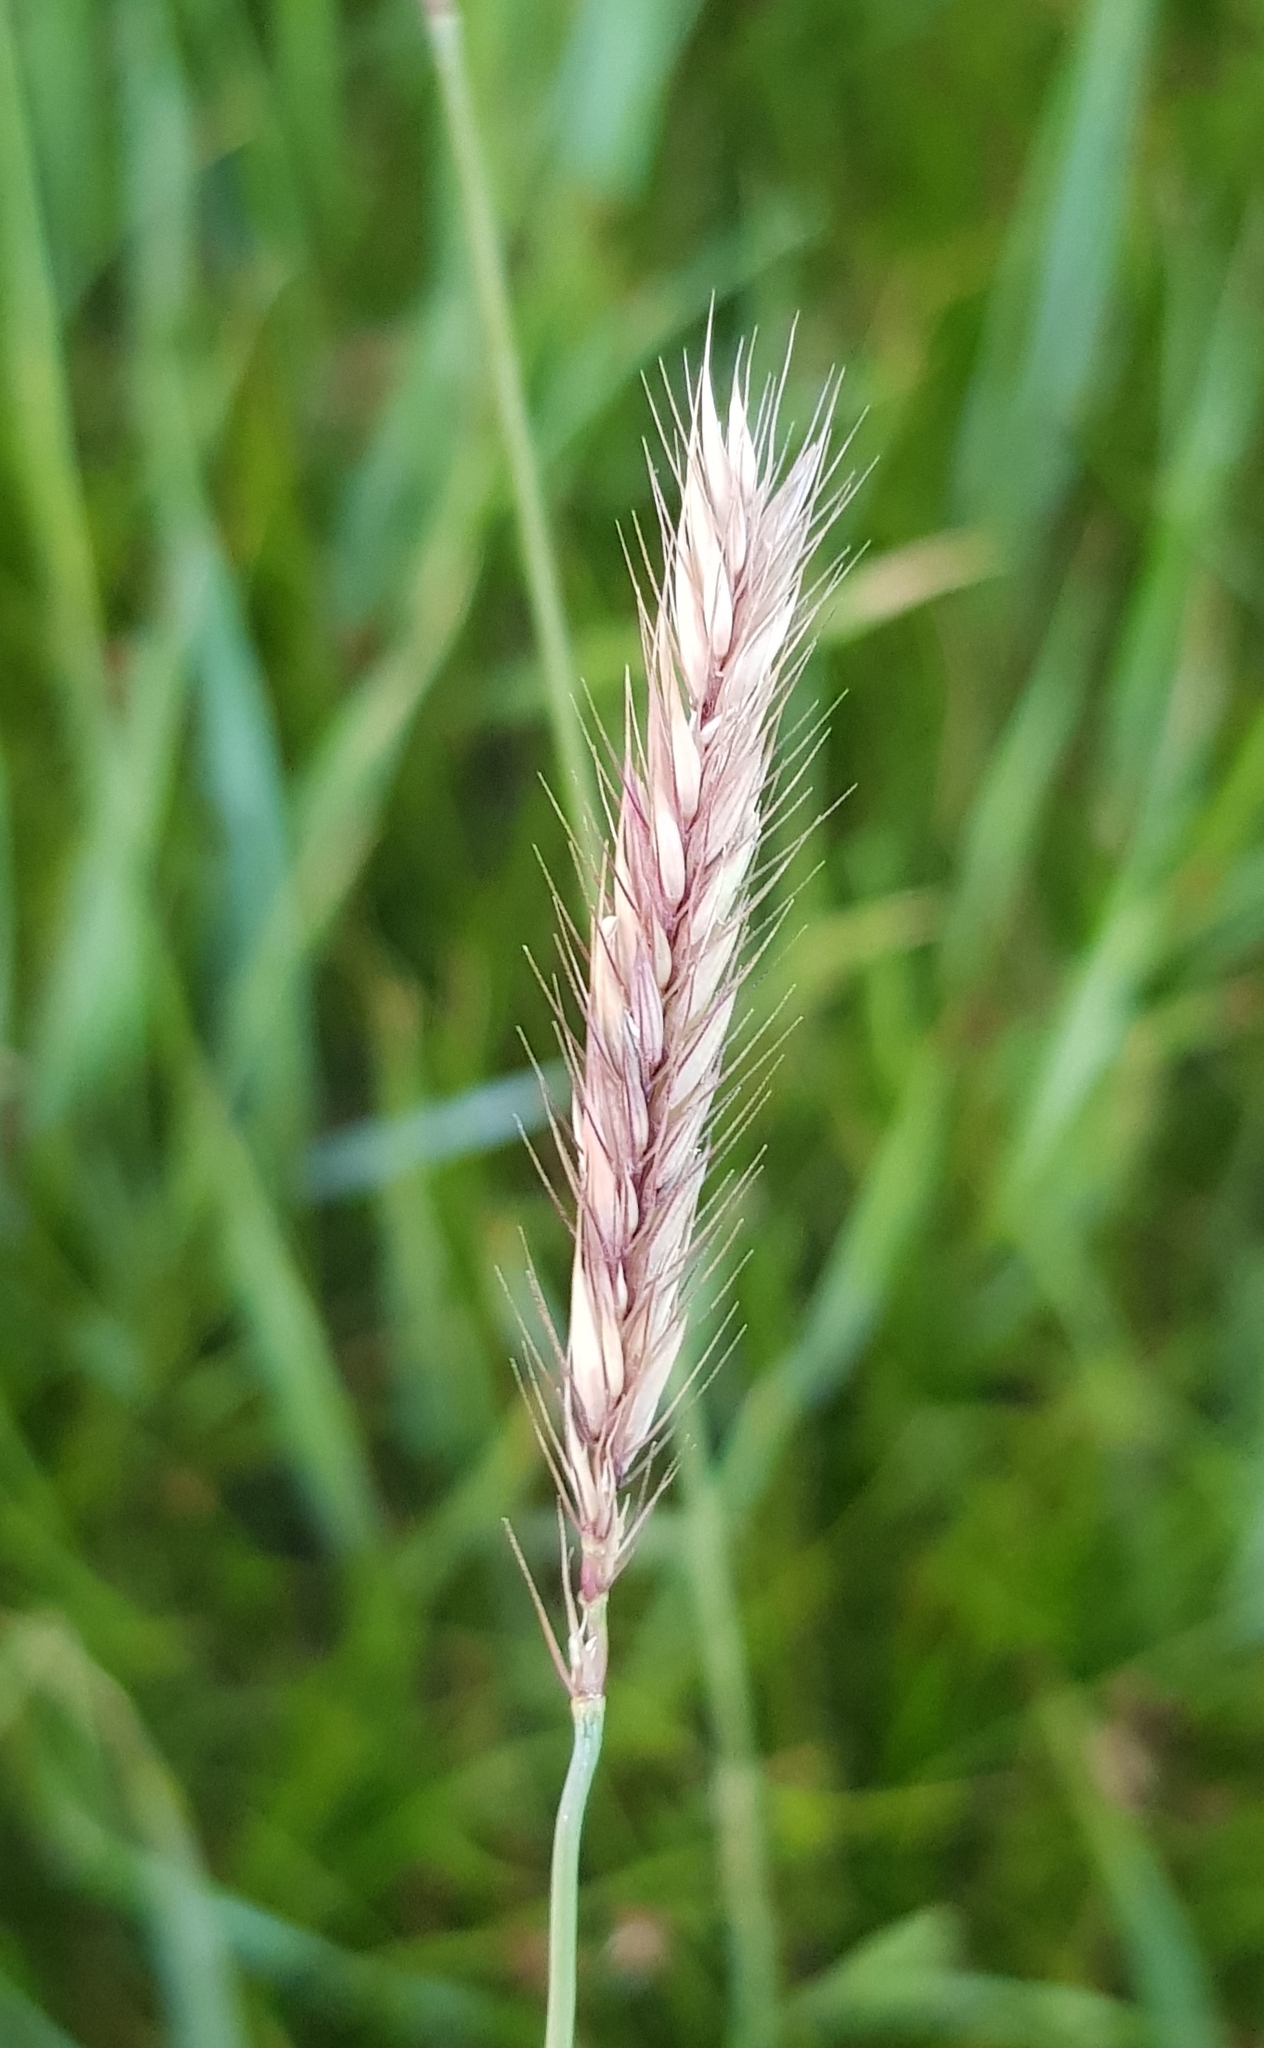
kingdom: Plantae
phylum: Tracheophyta
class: Liliopsida
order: Poales
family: Poaceae
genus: Hordeum
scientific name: Hordeum brevisubulatum
